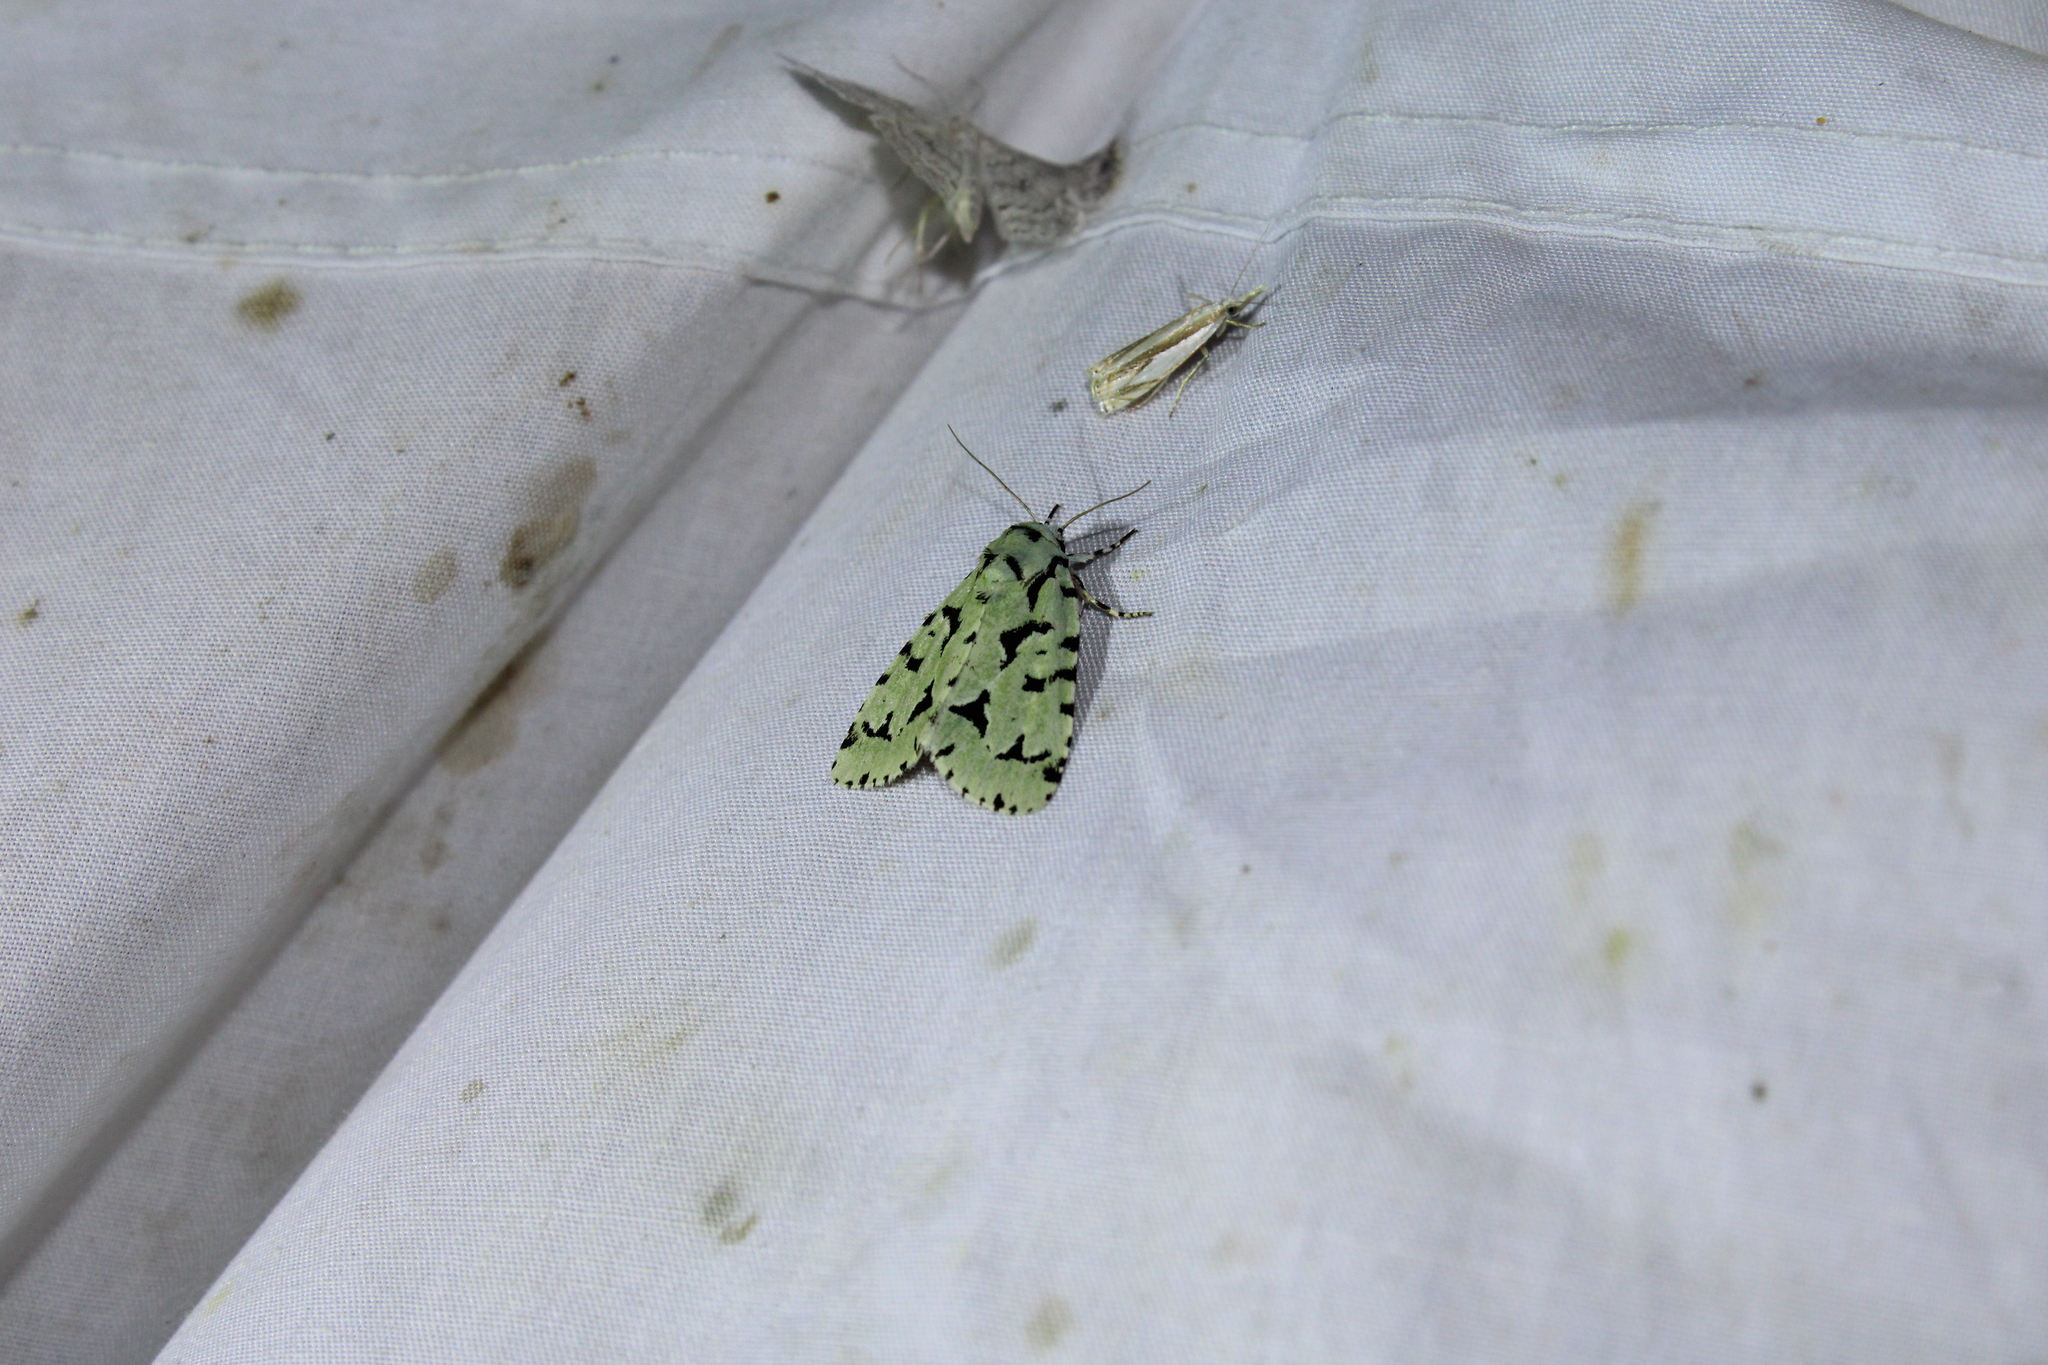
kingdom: Animalia
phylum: Arthropoda
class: Insecta
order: Lepidoptera
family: Noctuidae
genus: Acronicta
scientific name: Acronicta fallax
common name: Green marvel
